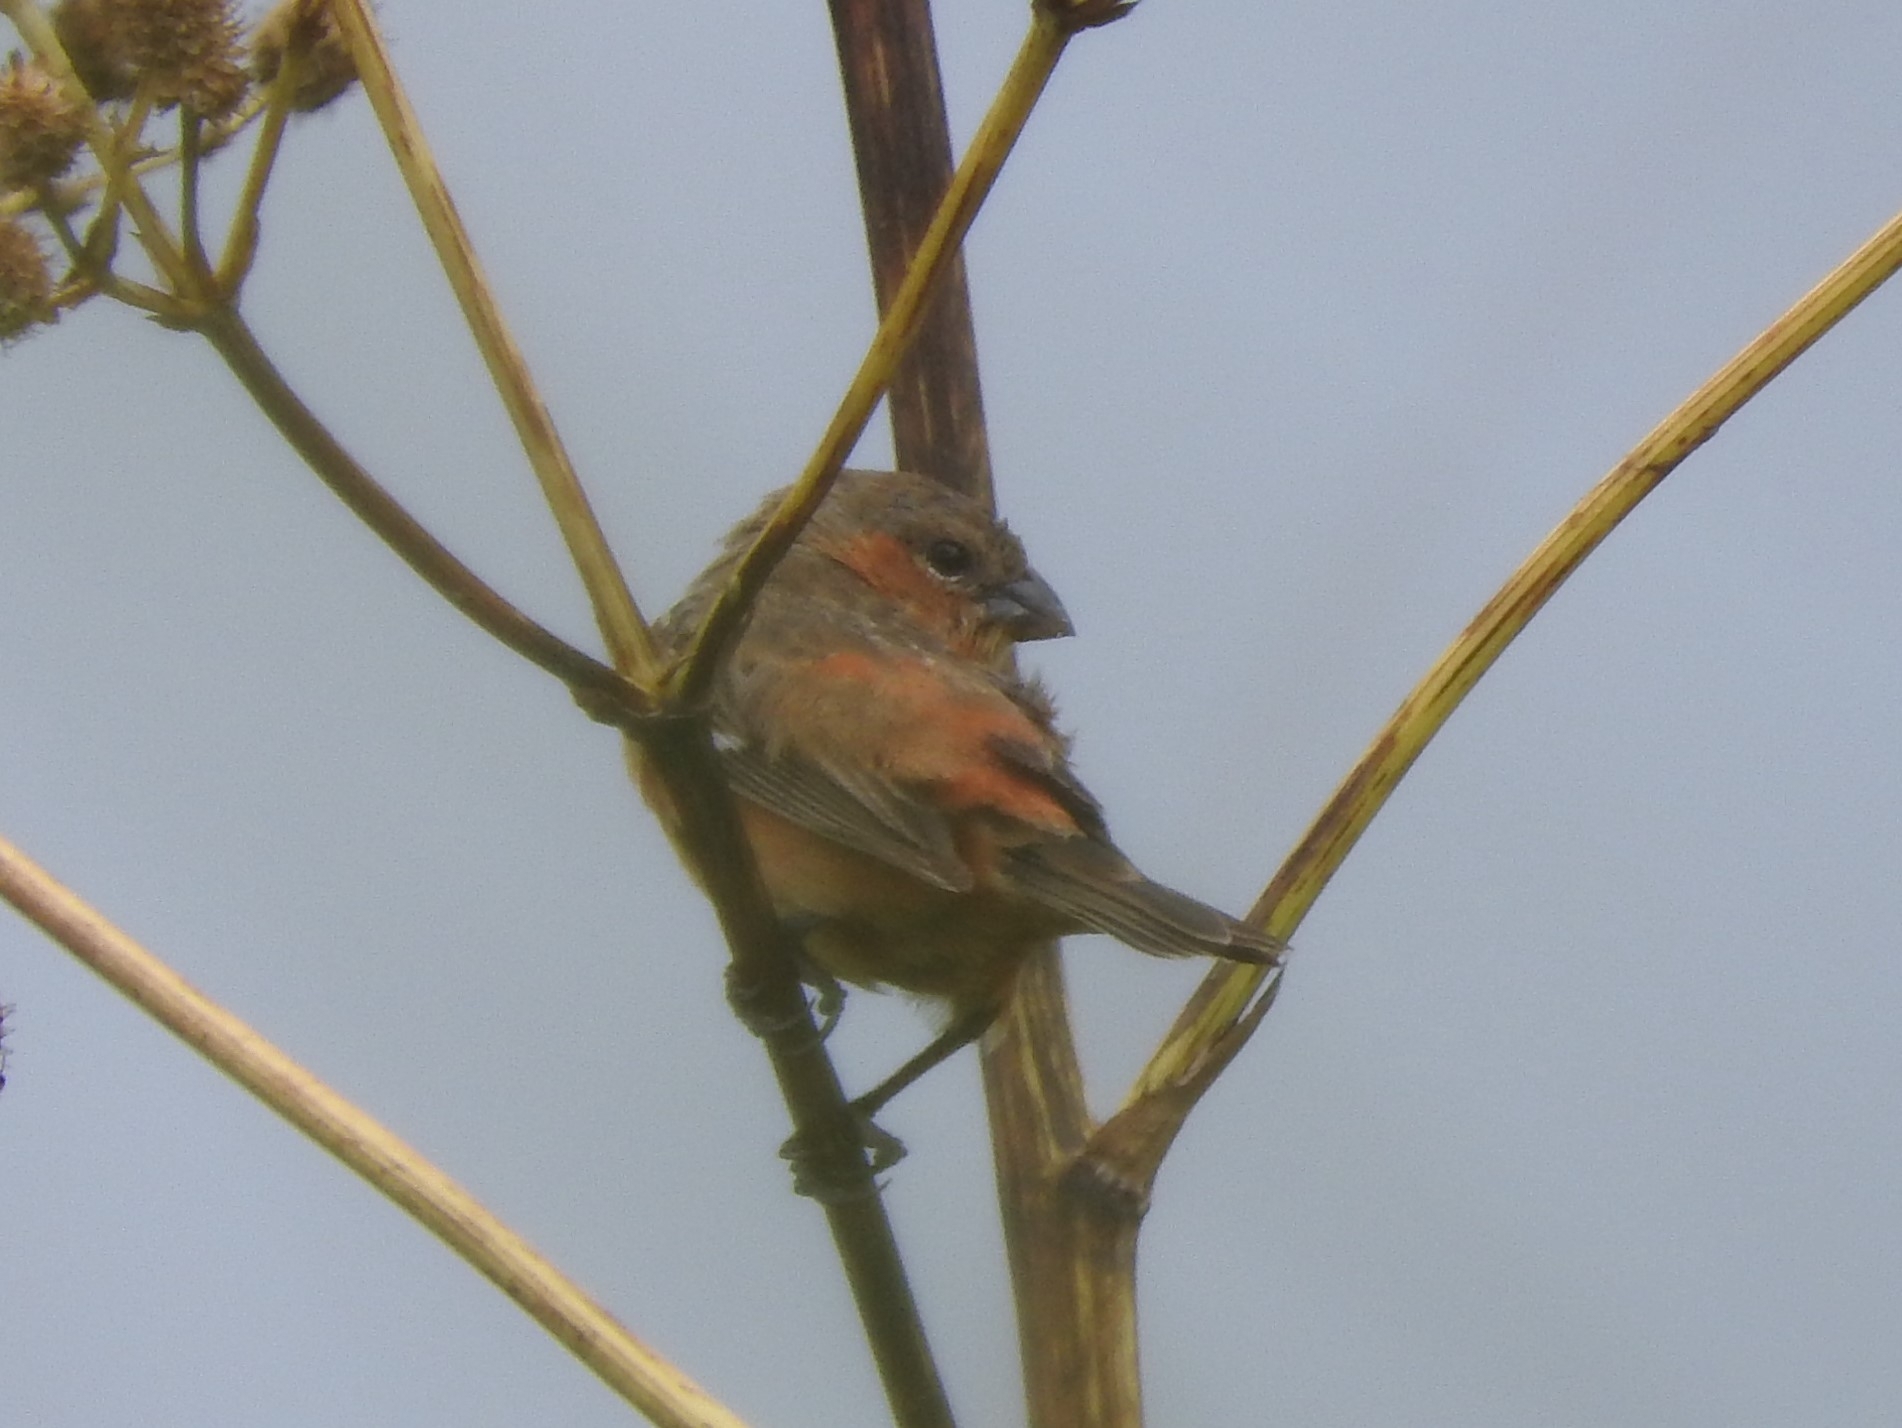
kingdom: Animalia
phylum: Chordata
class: Aves
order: Passeriformes
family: Thraupidae
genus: Sporophila
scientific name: Sporophila hypoxantha
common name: Tawny-bellied seedeater
